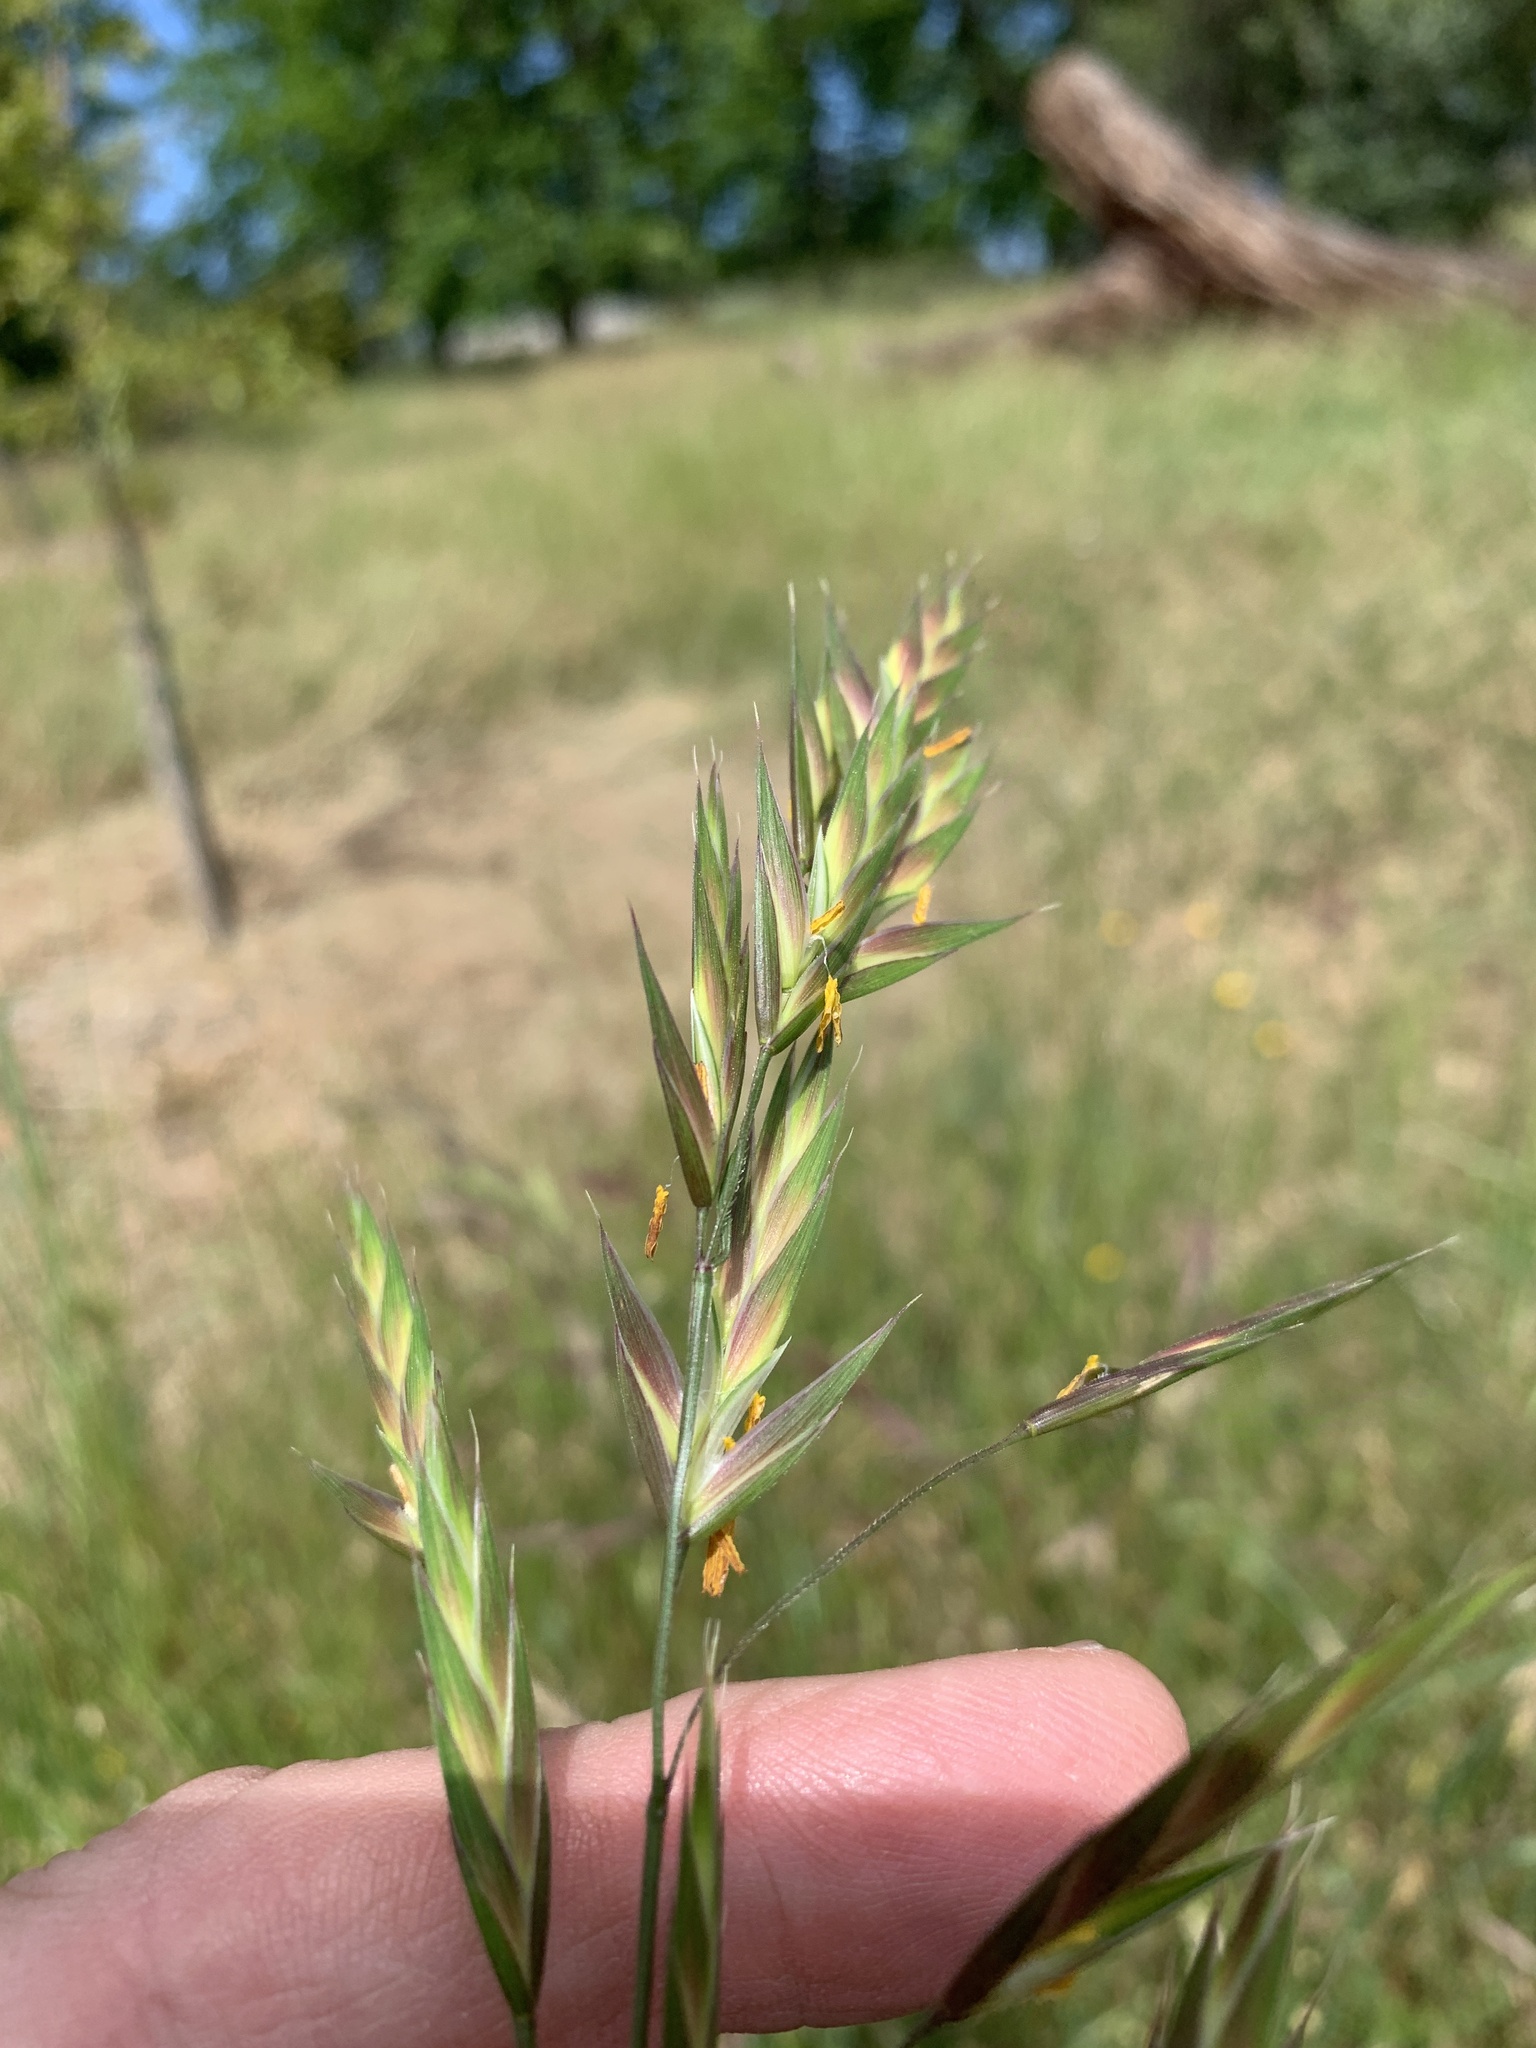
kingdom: Plantae
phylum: Tracheophyta
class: Liliopsida
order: Poales
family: Poaceae
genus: Bromus
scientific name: Bromus catharticus
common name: Rescuegrass
